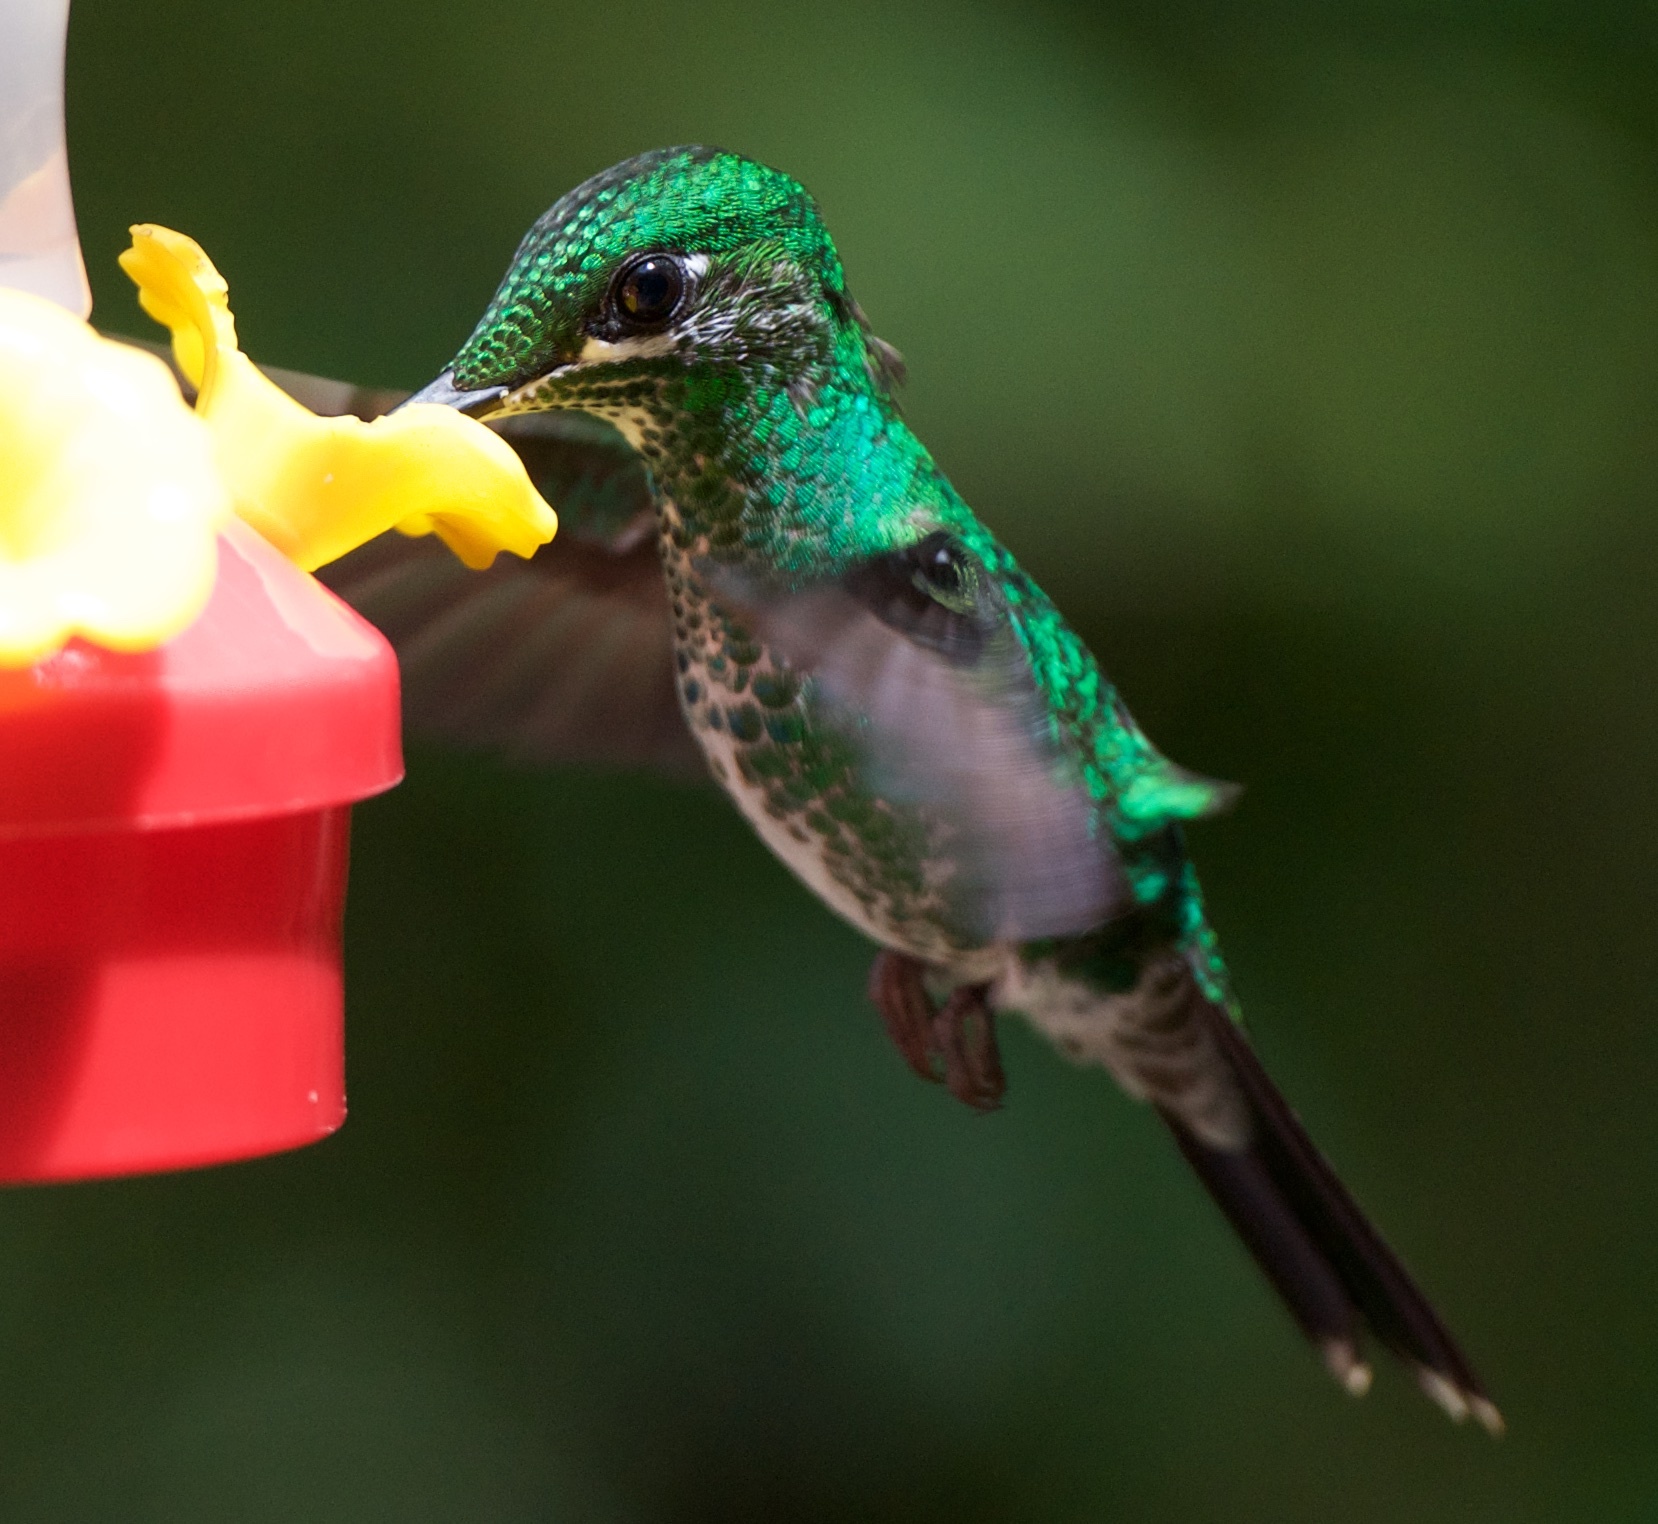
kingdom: Animalia
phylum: Chordata
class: Aves
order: Apodiformes
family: Trochilidae
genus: Heliodoxa
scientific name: Heliodoxa jacula
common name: Green-crowned brilliant
